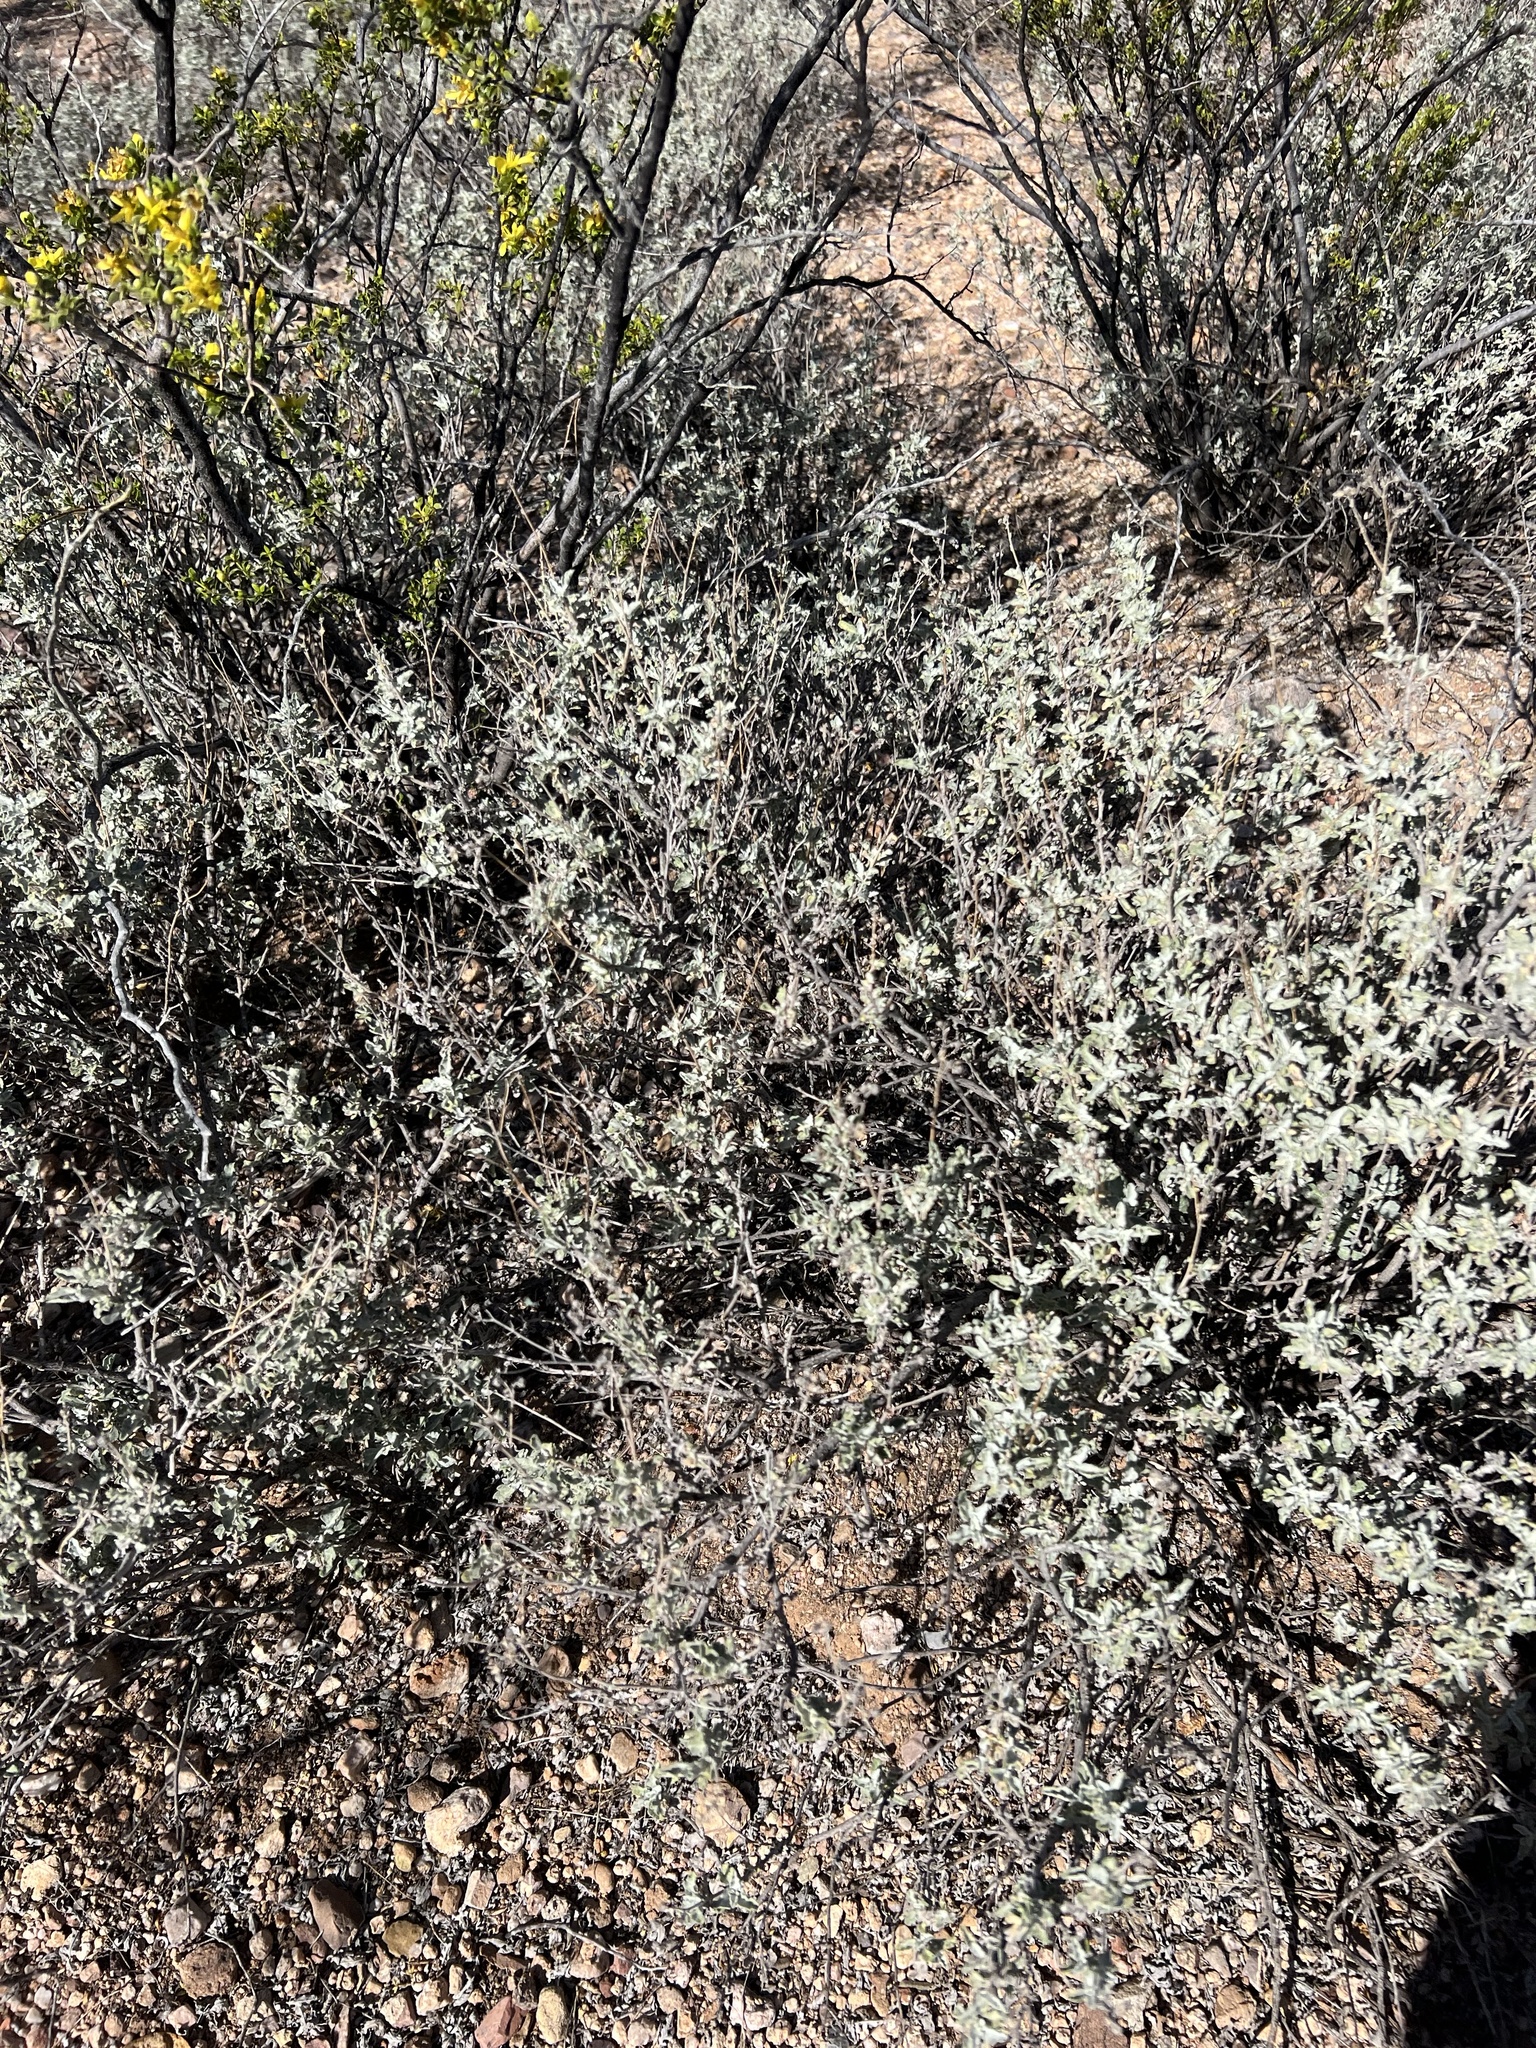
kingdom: Plantae
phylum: Tracheophyta
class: Magnoliopsida
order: Asterales
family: Asteraceae
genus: Parthenium
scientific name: Parthenium incanum
